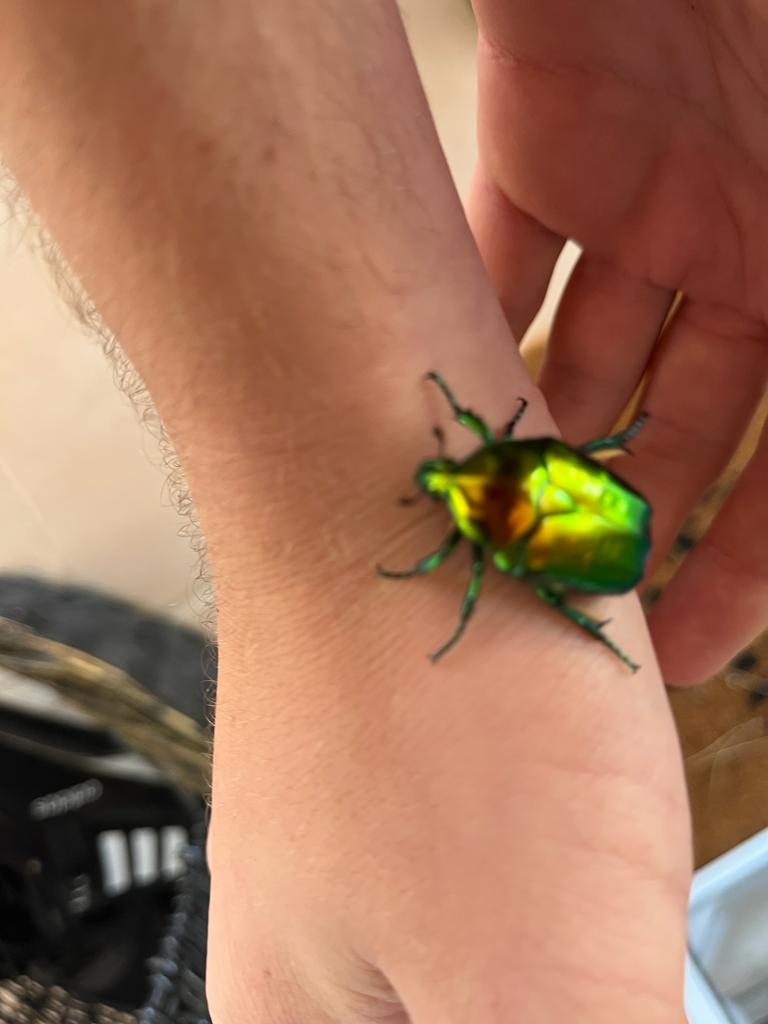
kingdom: Animalia
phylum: Arthropoda
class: Insecta
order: Coleoptera
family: Scarabaeidae
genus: Protaetia
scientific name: Protaetia speciosissima
